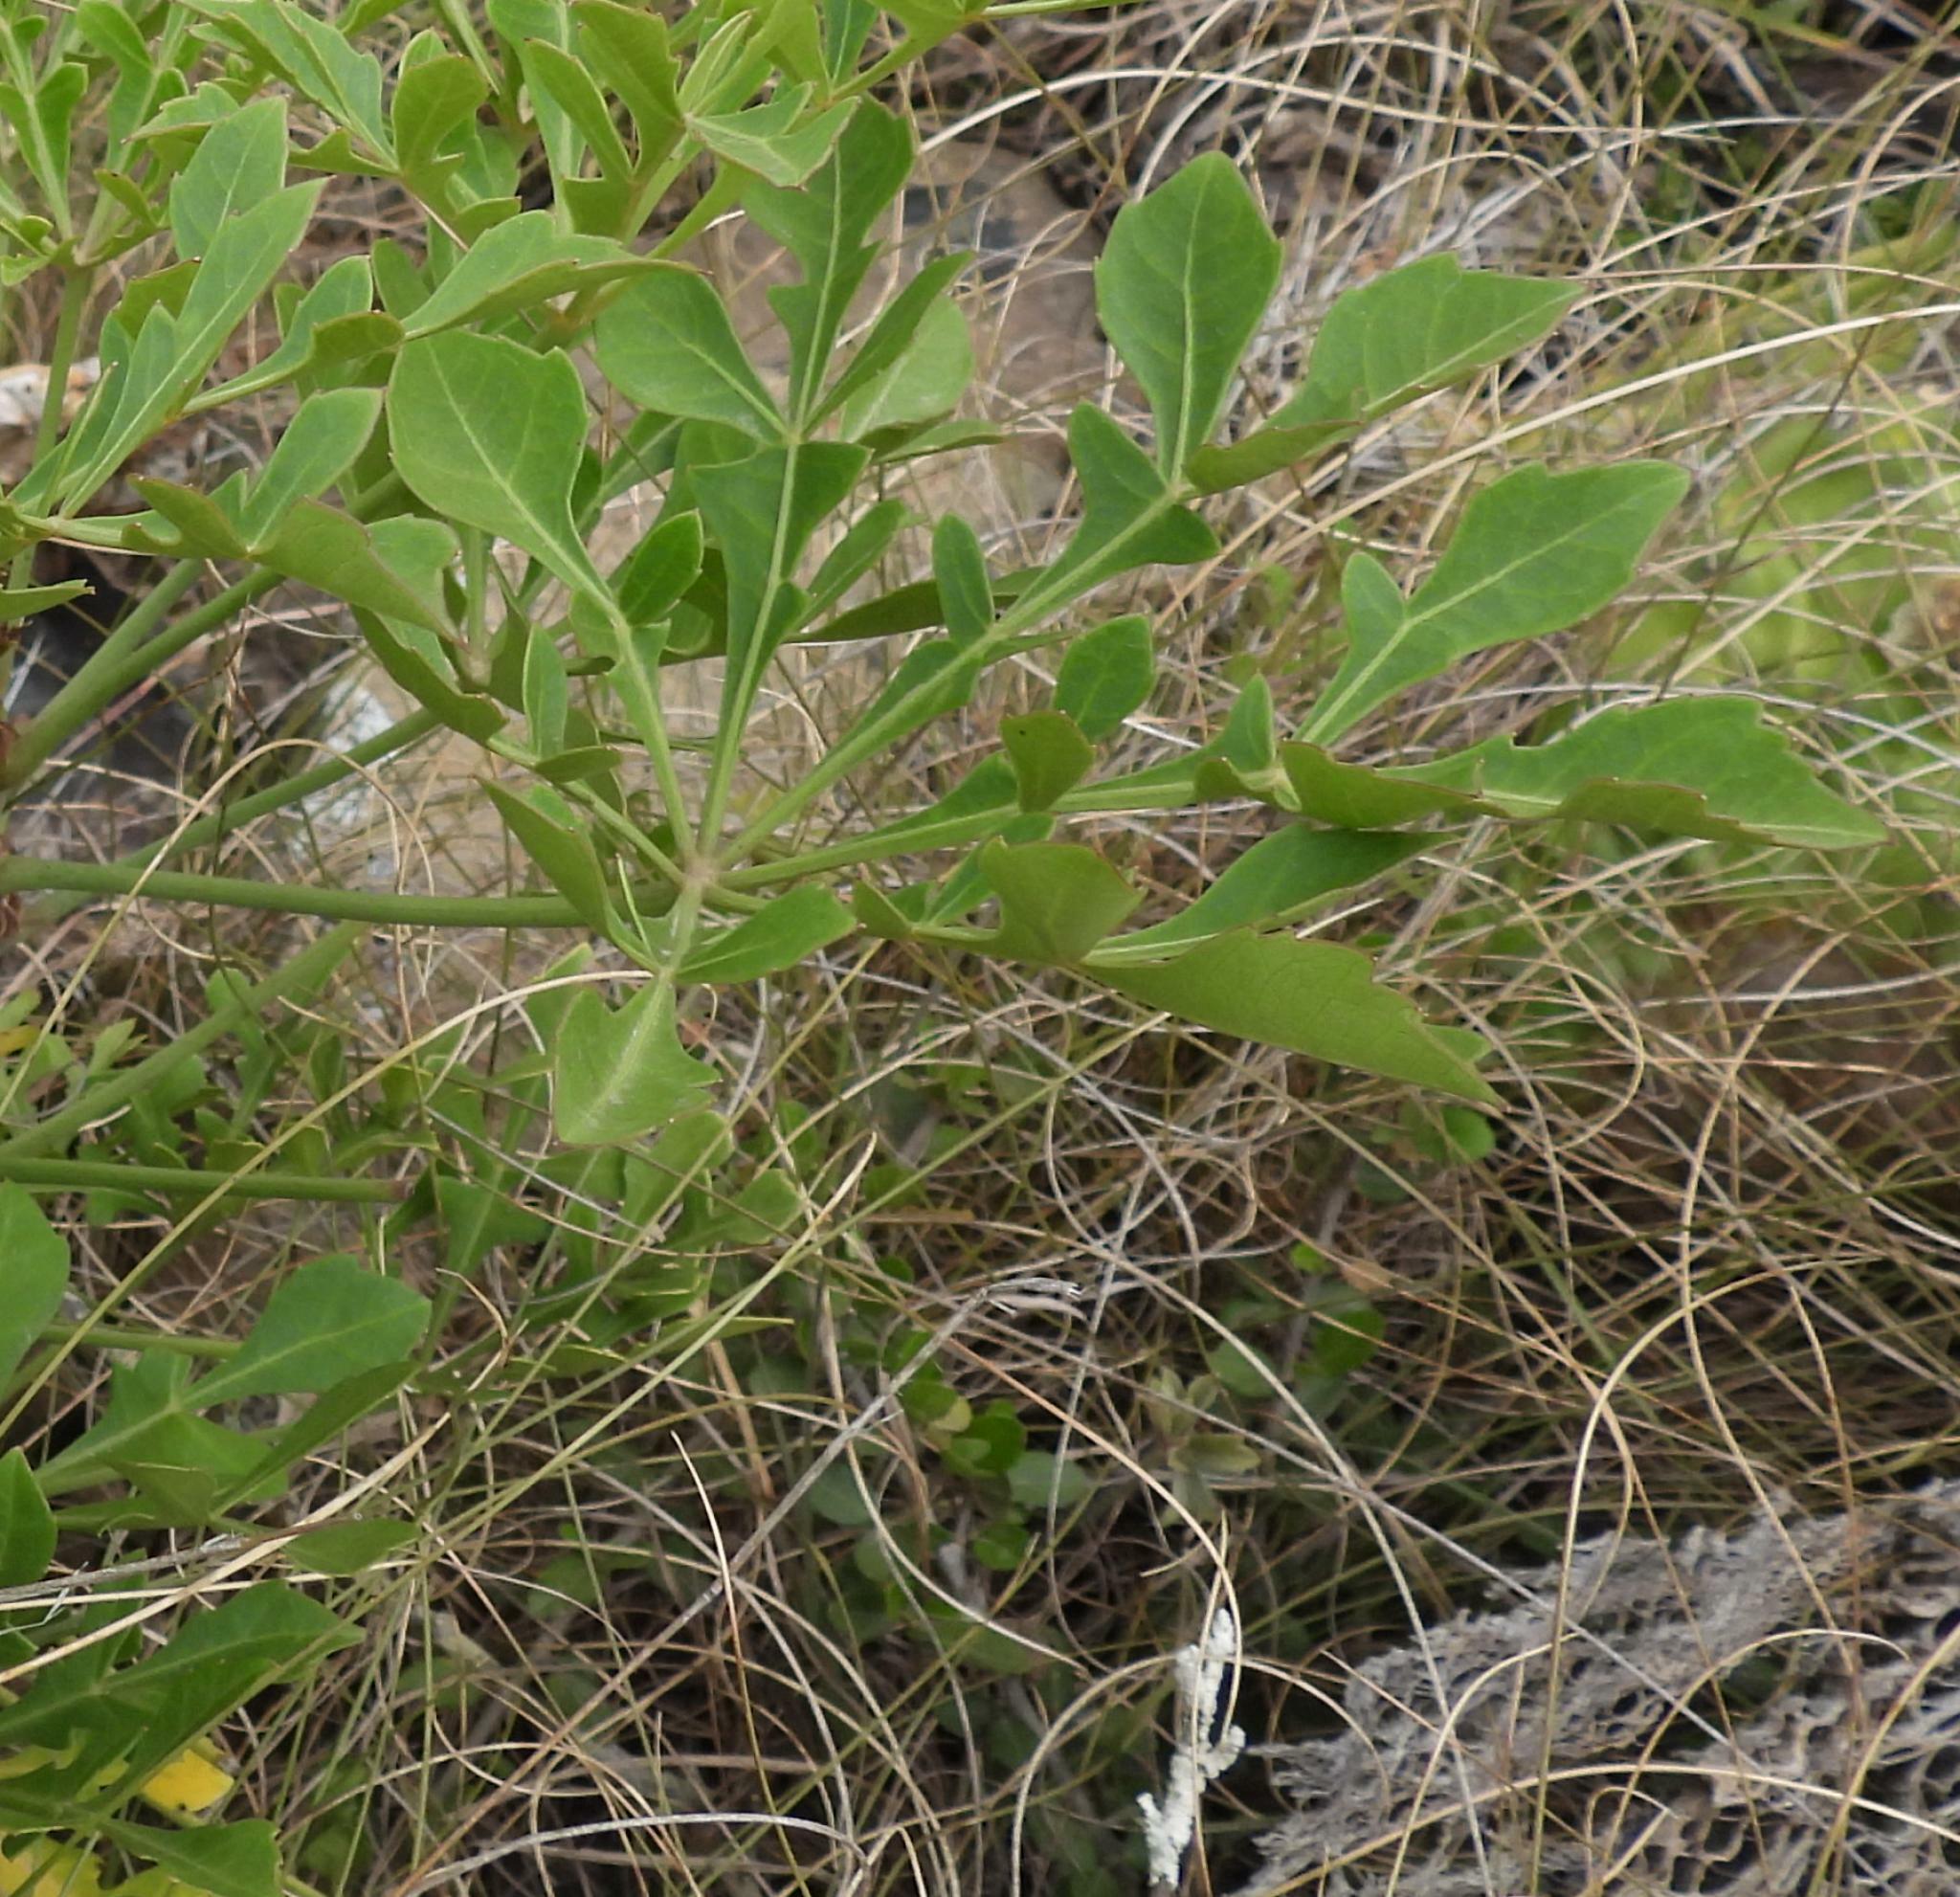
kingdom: Plantae
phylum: Tracheophyta
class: Magnoliopsida
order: Apiales
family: Araliaceae
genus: Cussonia
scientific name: Cussonia spicata
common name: Common cabbagetree
